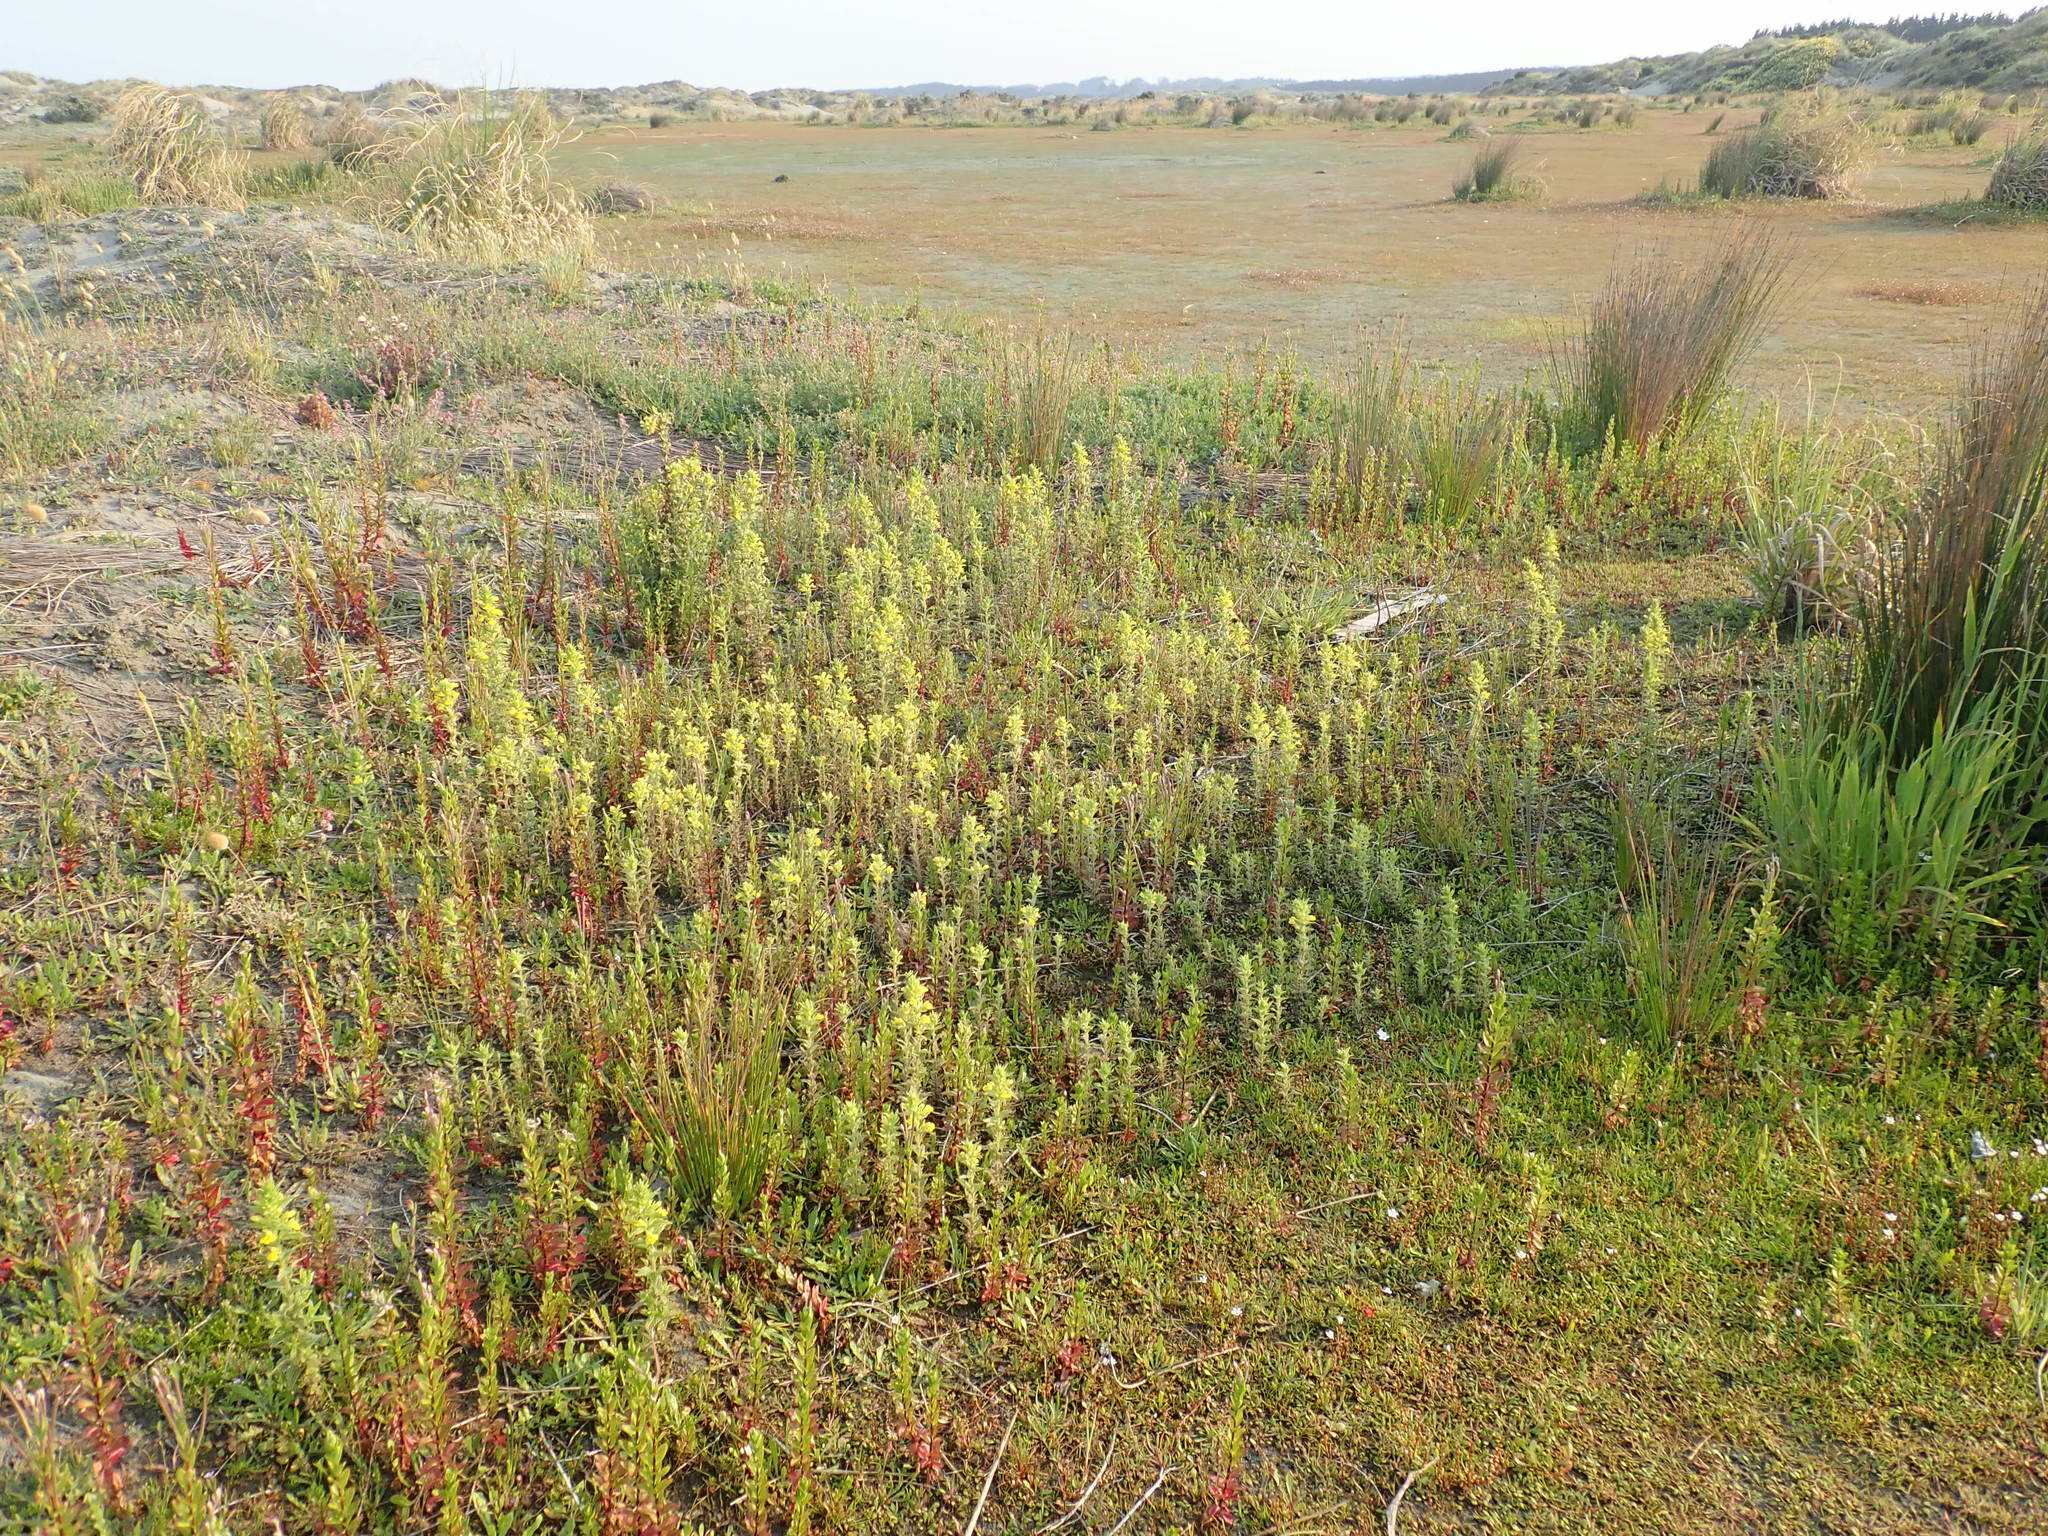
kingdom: Plantae
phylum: Tracheophyta
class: Magnoliopsida
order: Lamiales
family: Orobanchaceae
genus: Bellardia
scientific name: Bellardia viscosa
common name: Sticky parentucellia
